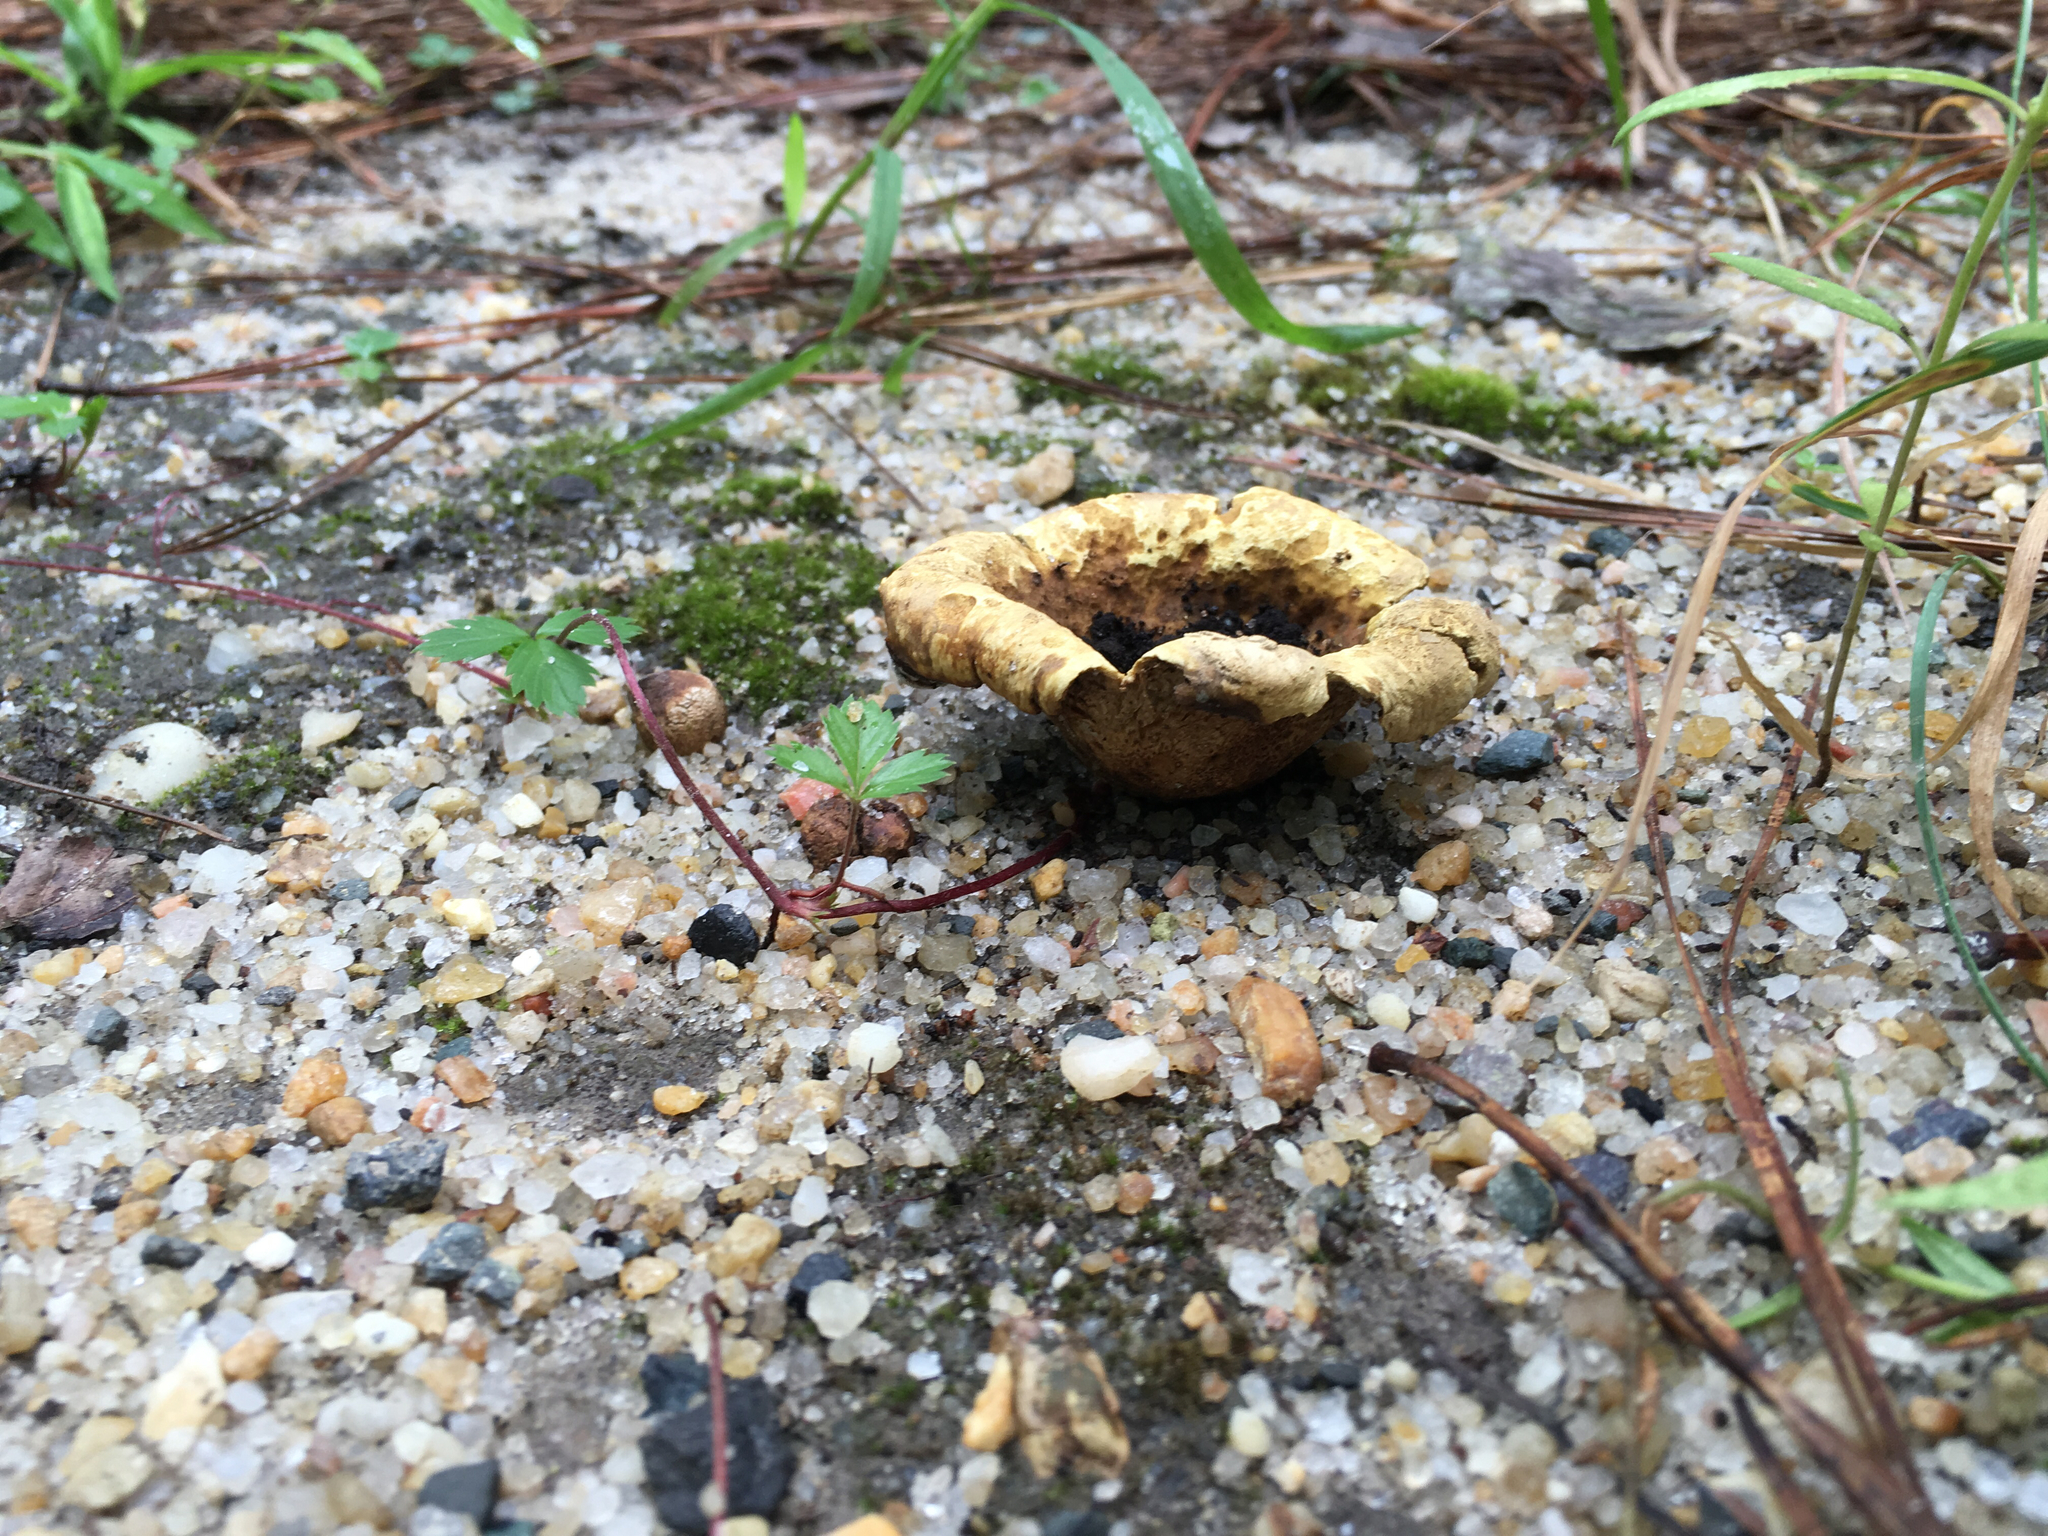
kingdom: Fungi
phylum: Basidiomycota
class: Agaricomycetes
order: Boletales
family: Sclerodermataceae
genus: Scleroderma
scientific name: Scleroderma citrinum
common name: Common earthball
